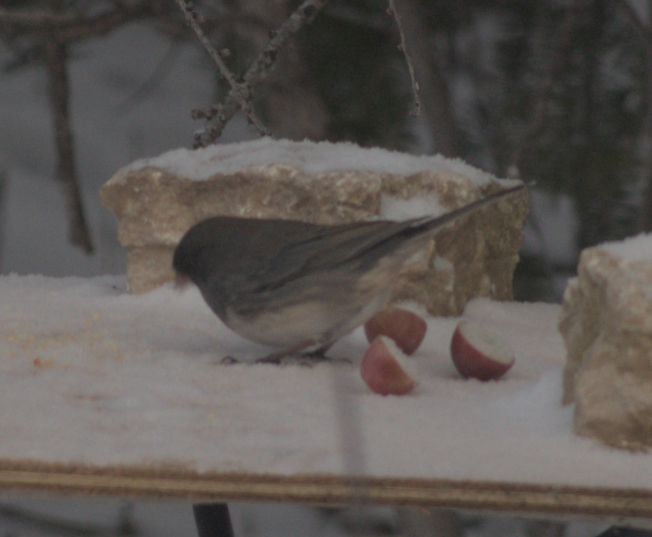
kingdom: Animalia
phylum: Chordata
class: Aves
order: Passeriformes
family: Passerellidae
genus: Junco
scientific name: Junco hyemalis
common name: Dark-eyed junco
